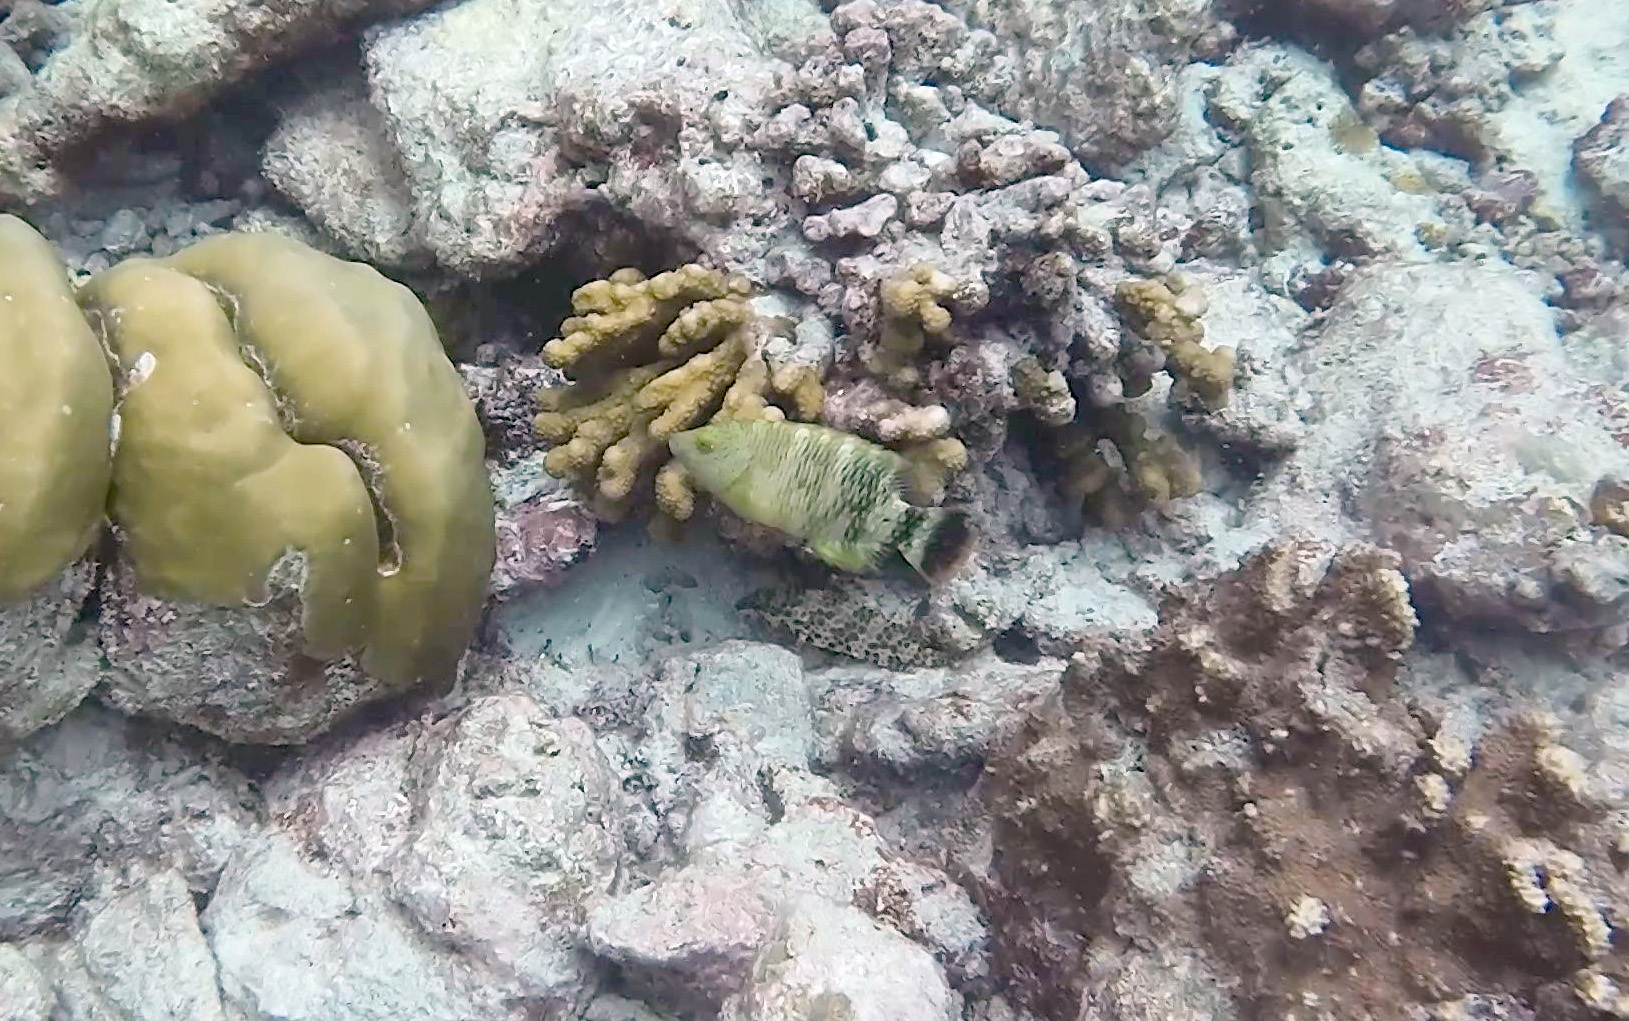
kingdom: Animalia
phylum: Chordata
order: Perciformes
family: Labridae
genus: Cheilinus
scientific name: Cheilinus trilobatus
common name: Tripletail maori wrasse
